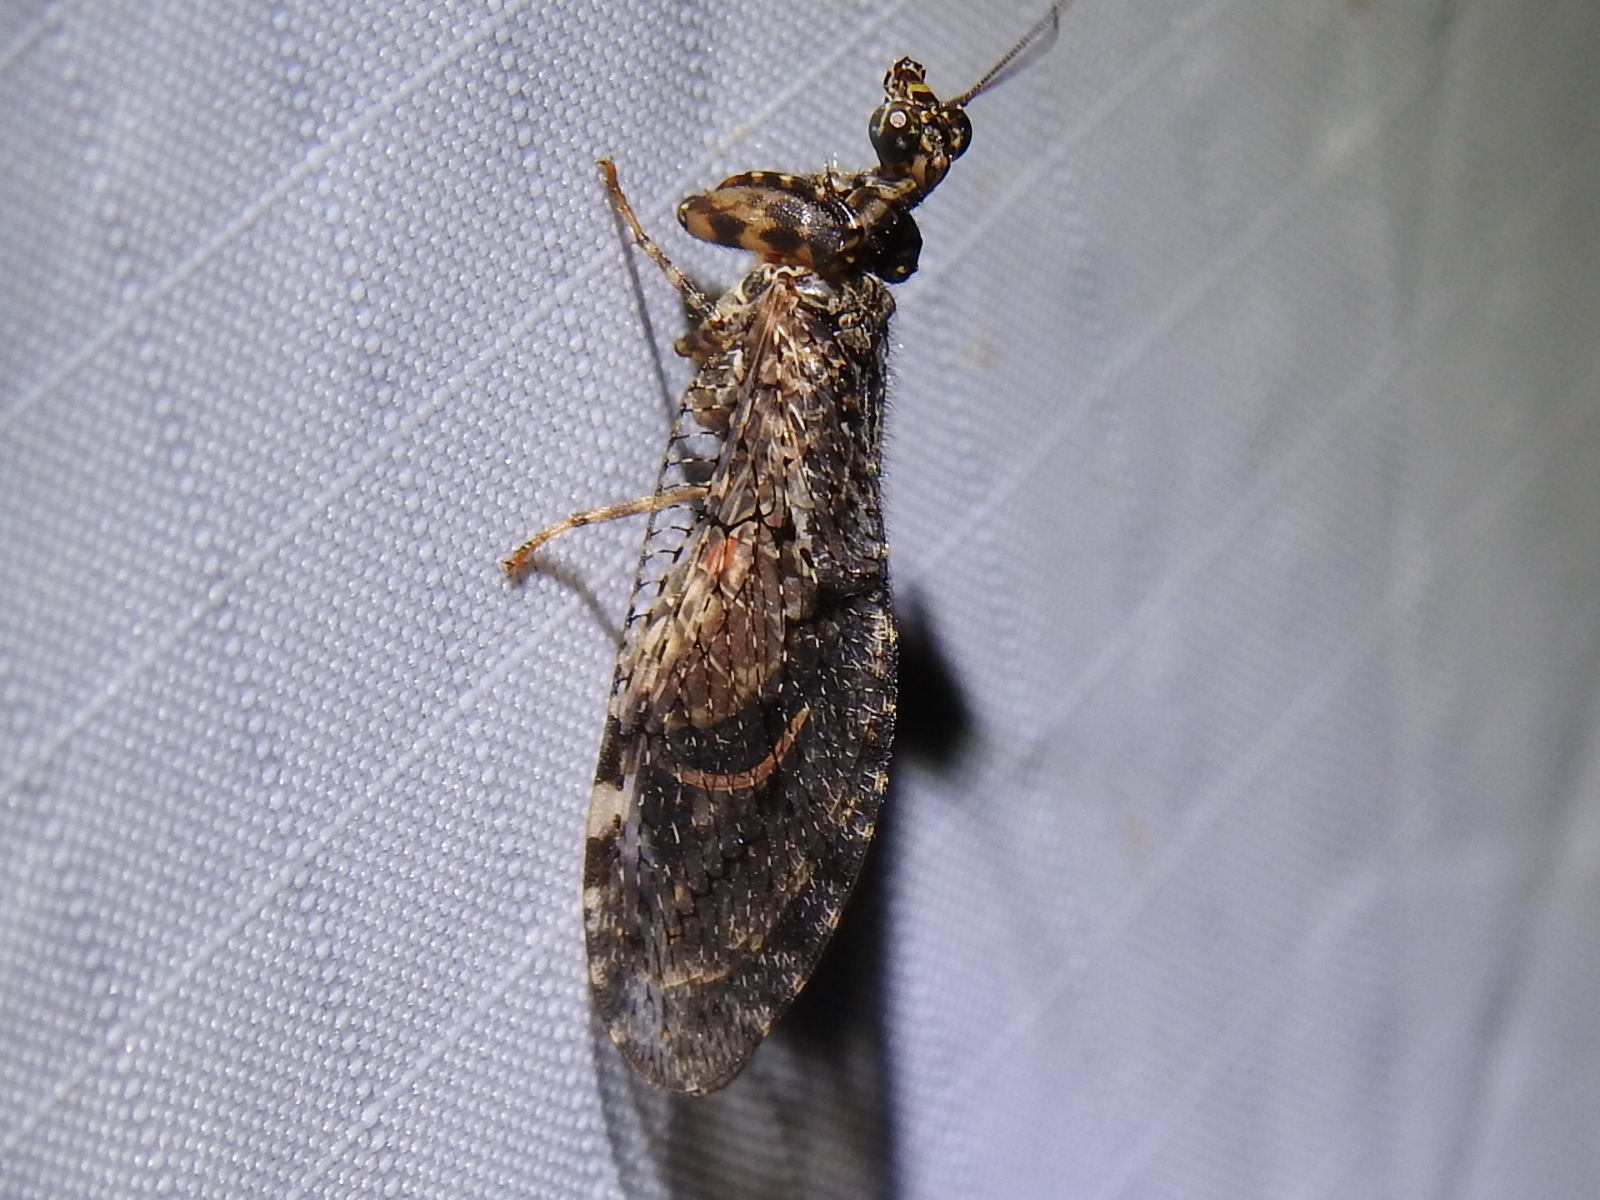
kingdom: Animalia
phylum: Arthropoda
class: Insecta
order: Neuroptera
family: Mantispidae
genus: Plega
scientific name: Plega
